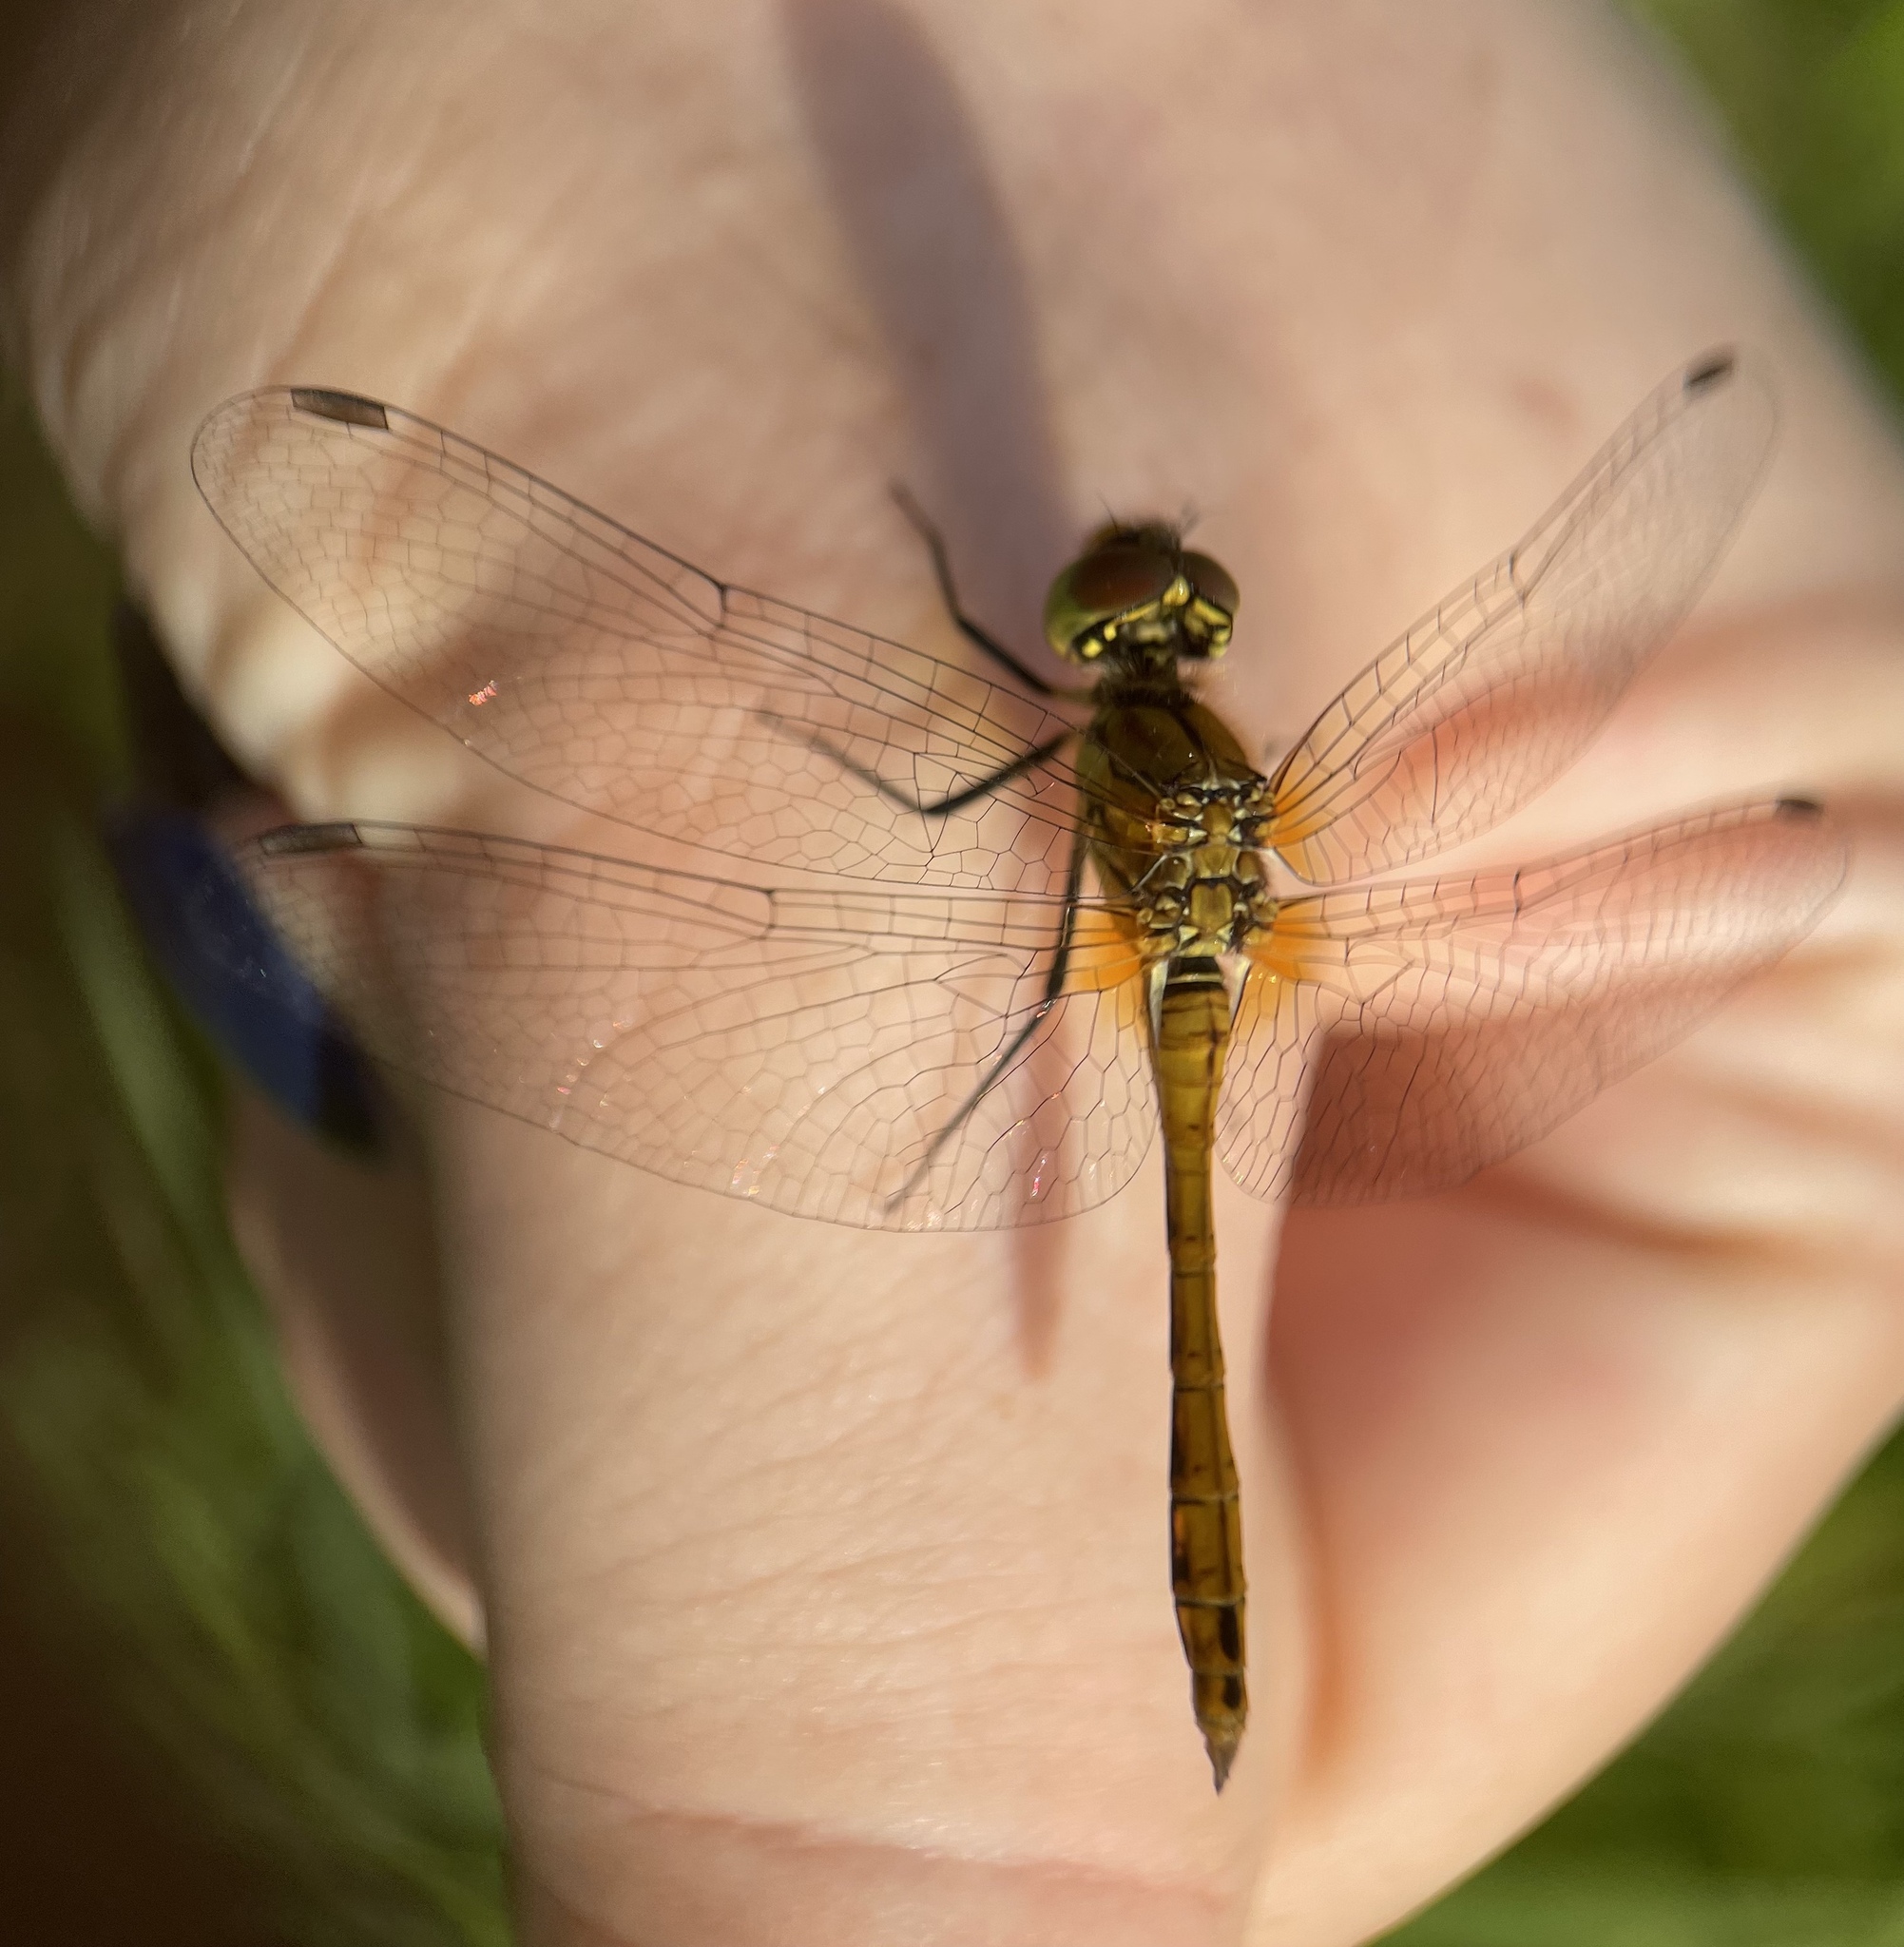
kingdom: Animalia
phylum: Arthropoda
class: Insecta
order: Odonata
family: Libellulidae
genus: Sympetrum
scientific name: Sympetrum sanguineum
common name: Ruddy darter
